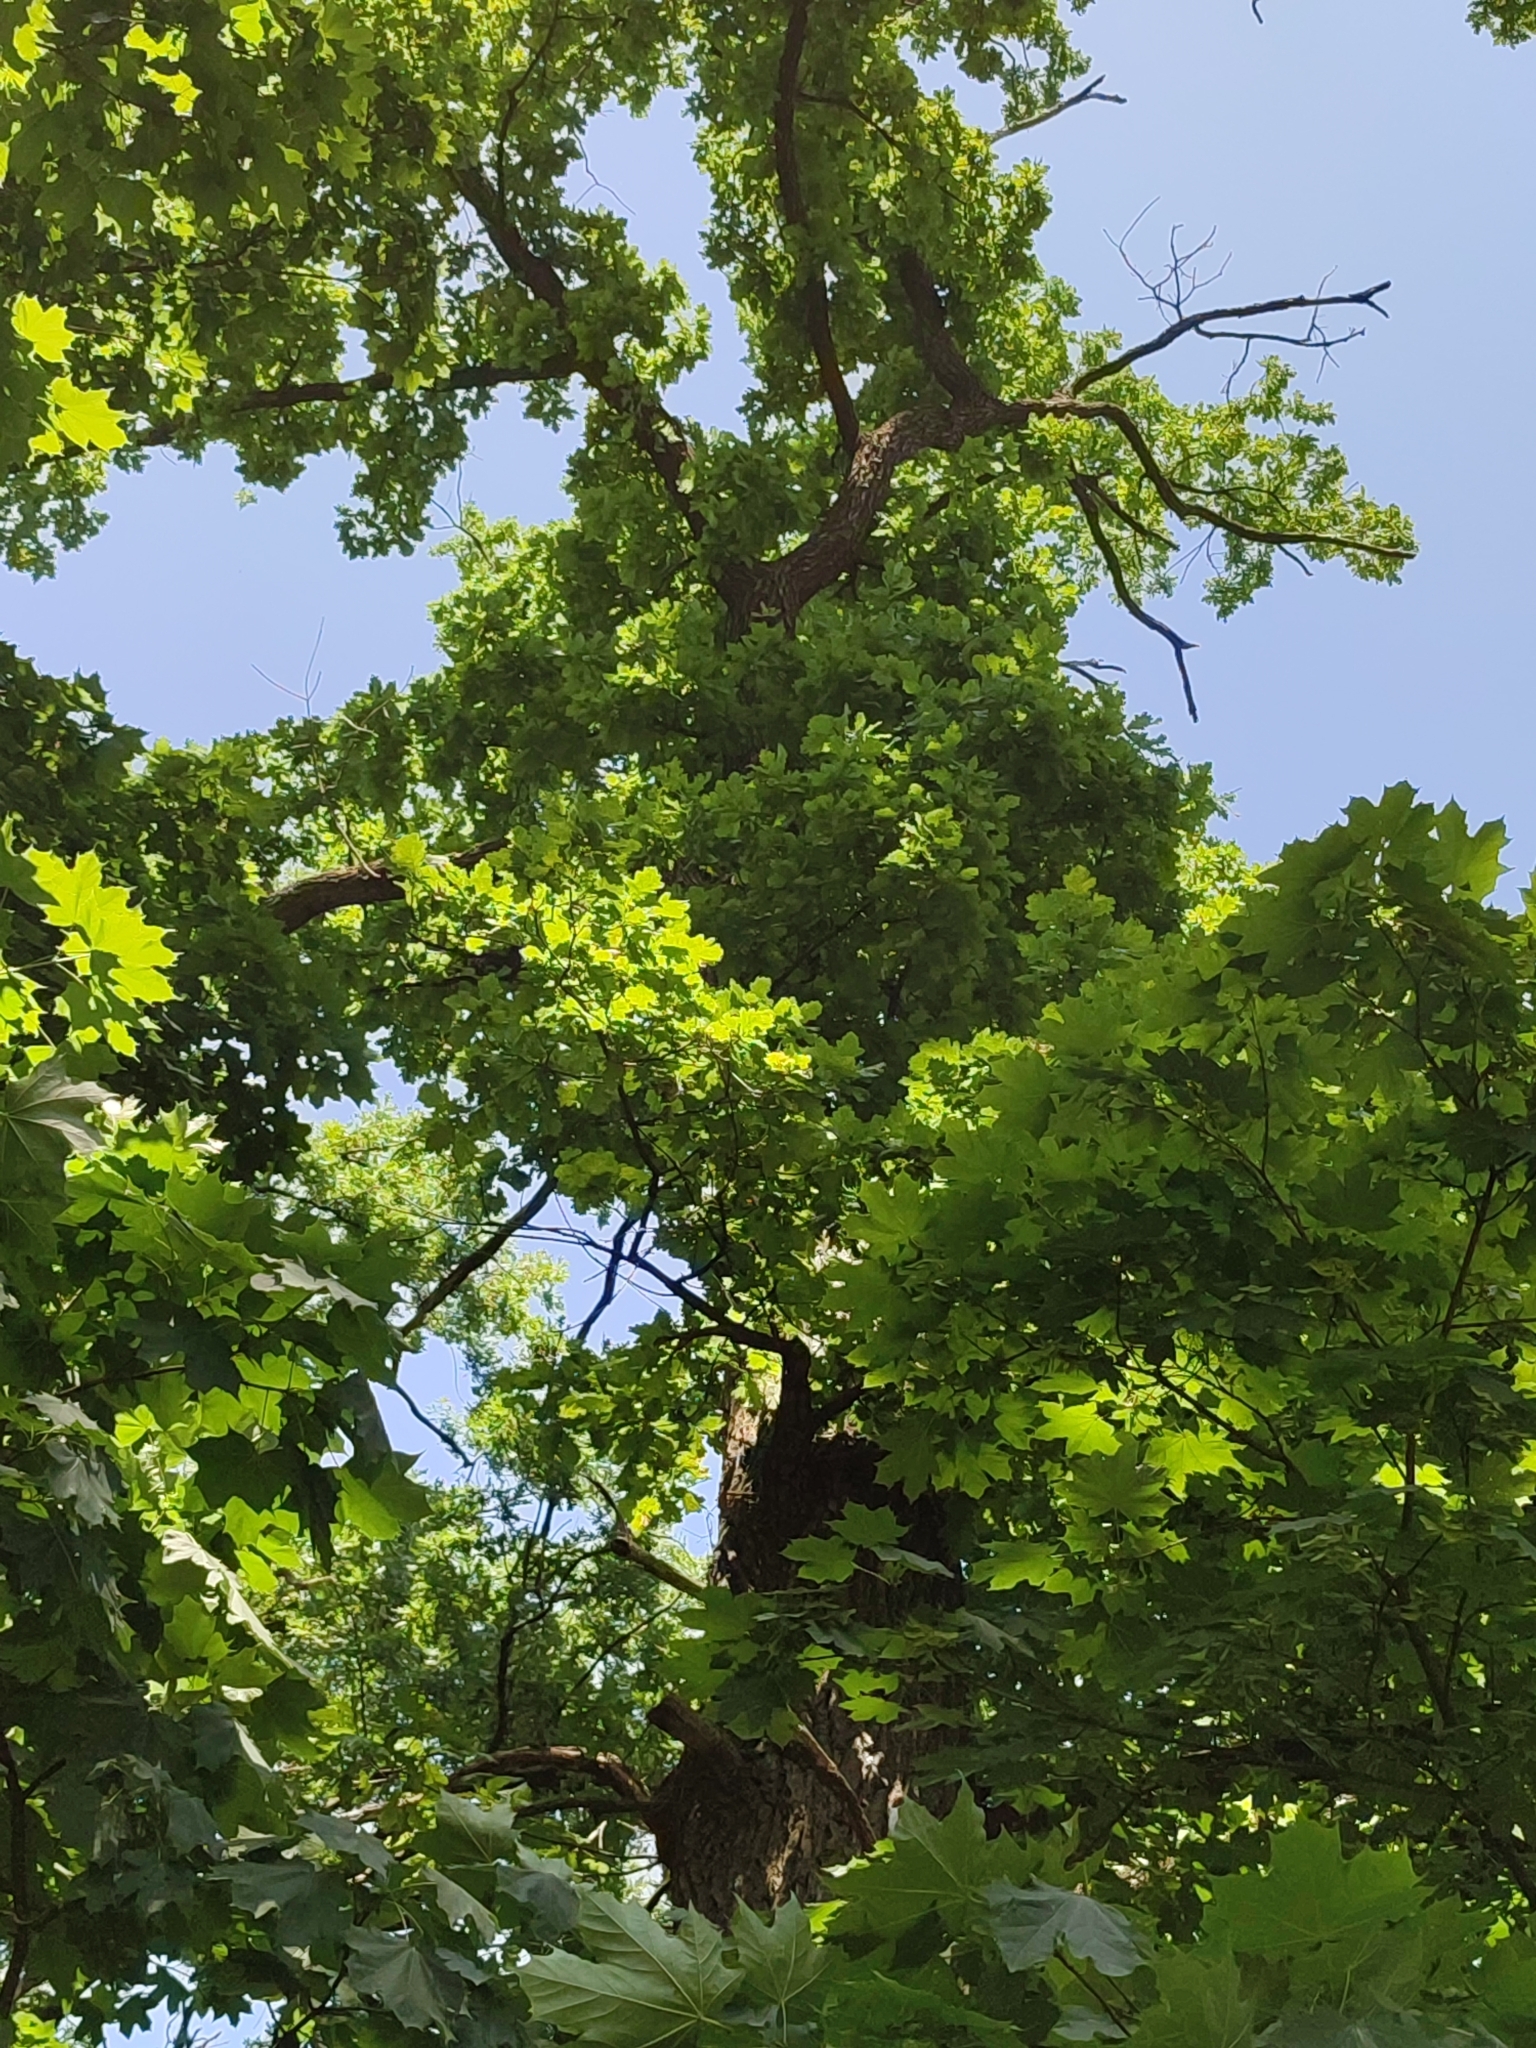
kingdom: Plantae
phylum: Tracheophyta
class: Magnoliopsida
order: Fagales
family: Fagaceae
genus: Quercus
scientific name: Quercus robur
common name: Pedunculate oak
